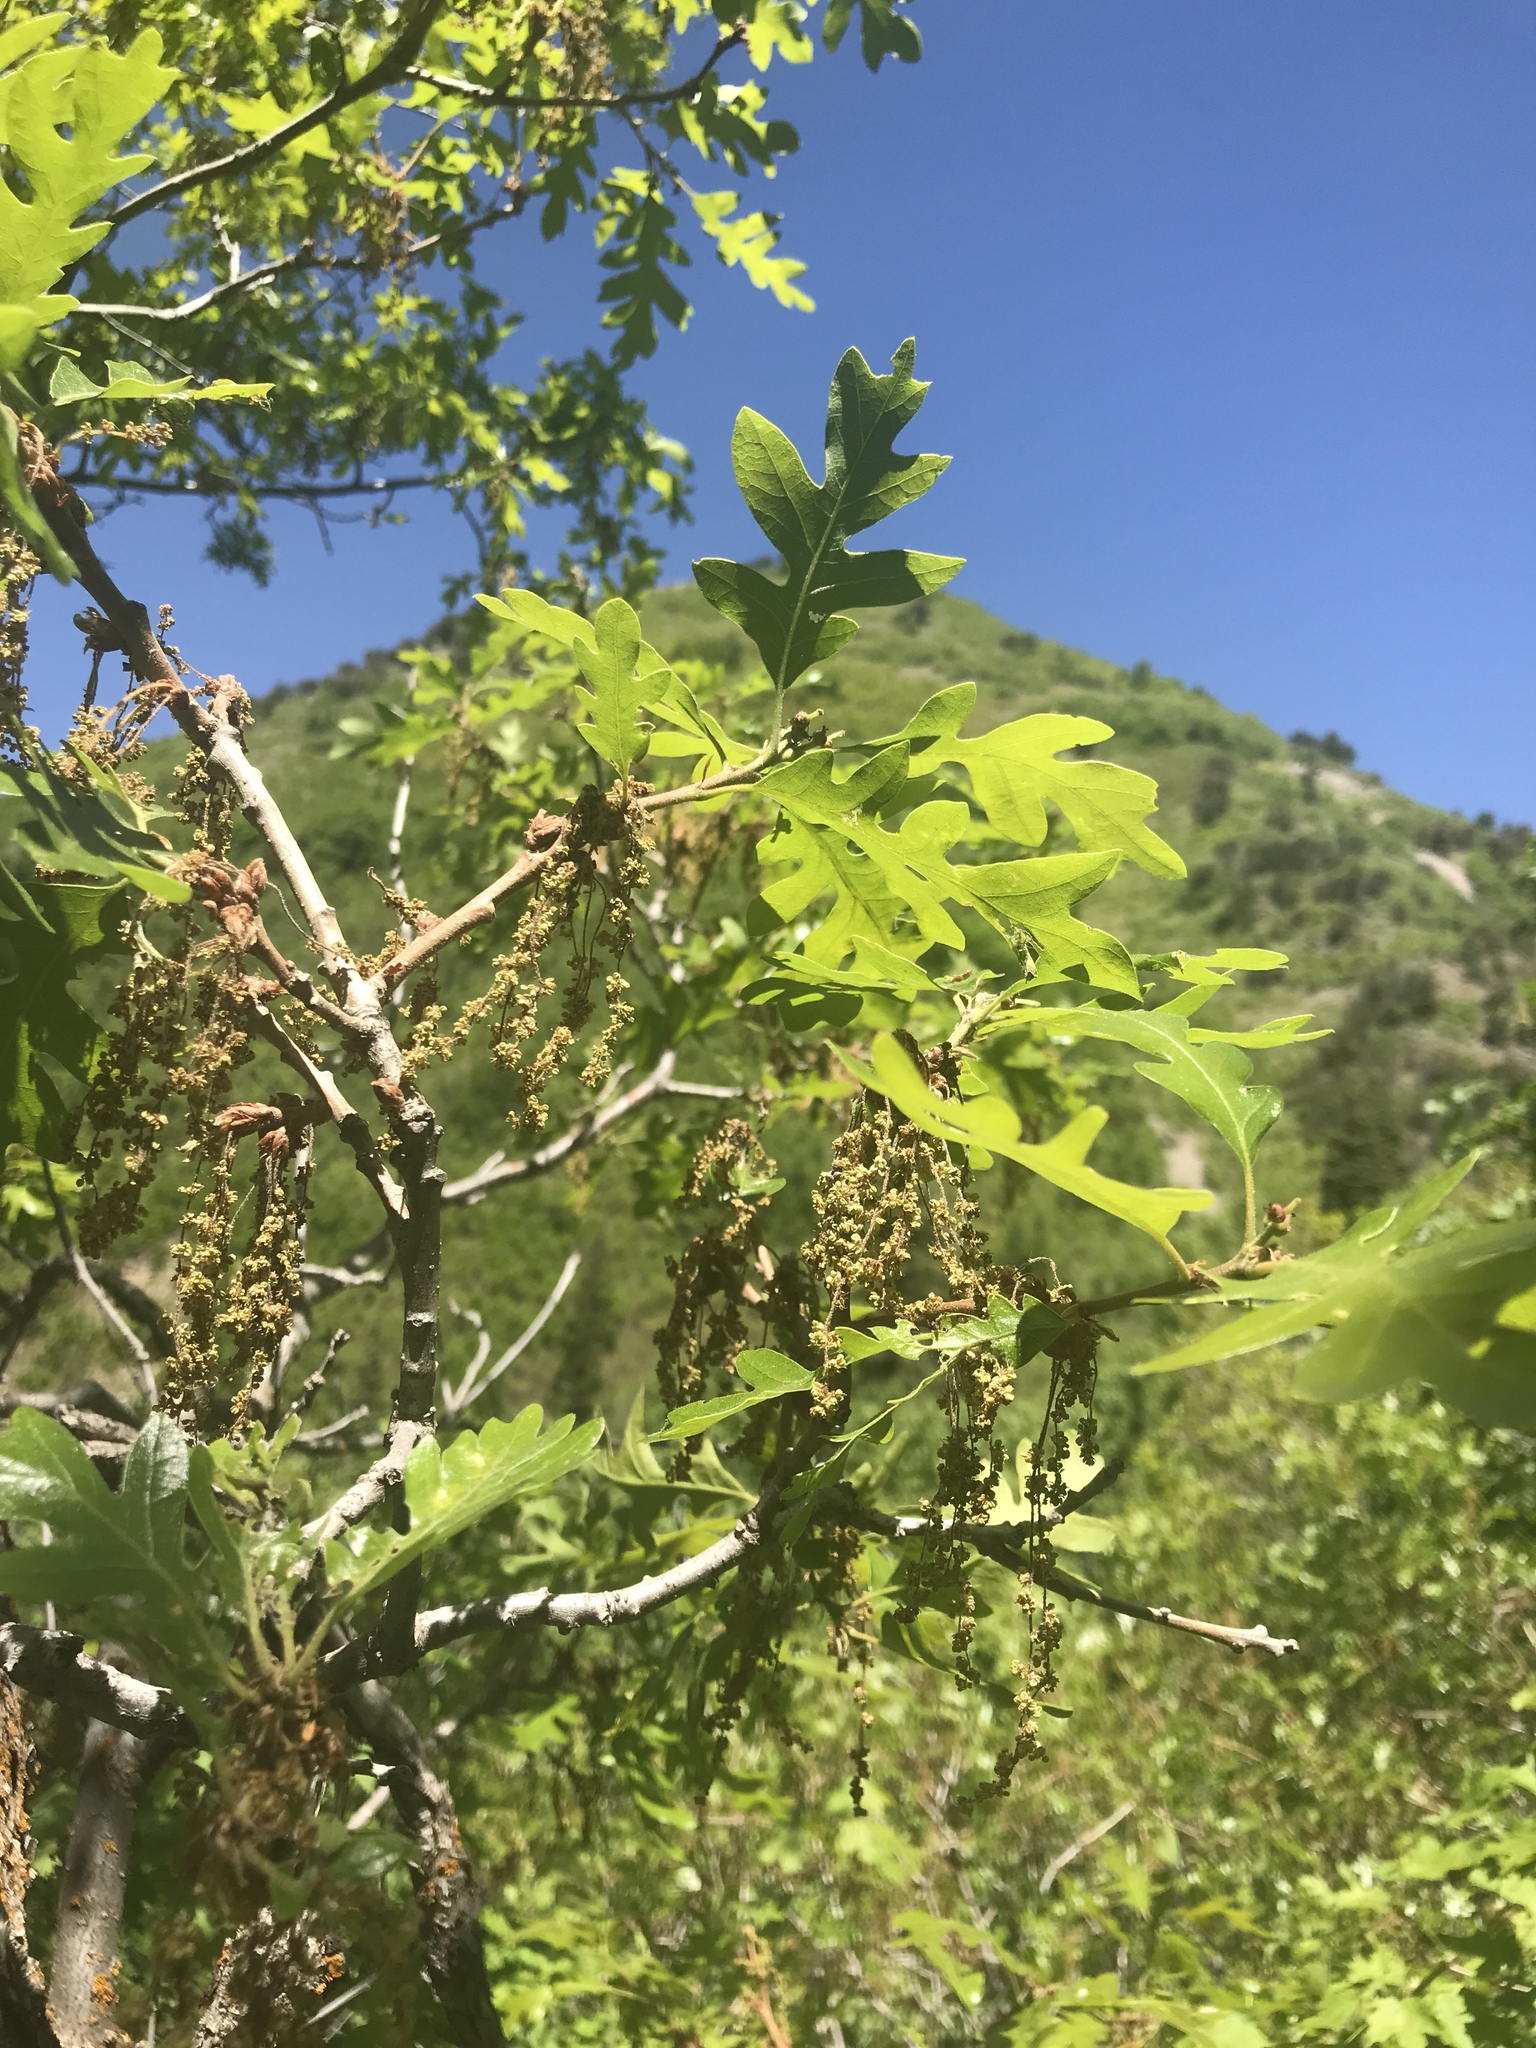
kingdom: Plantae
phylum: Tracheophyta
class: Magnoliopsida
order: Fagales
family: Fagaceae
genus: Quercus
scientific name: Quercus gambelii
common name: Gambel oak
